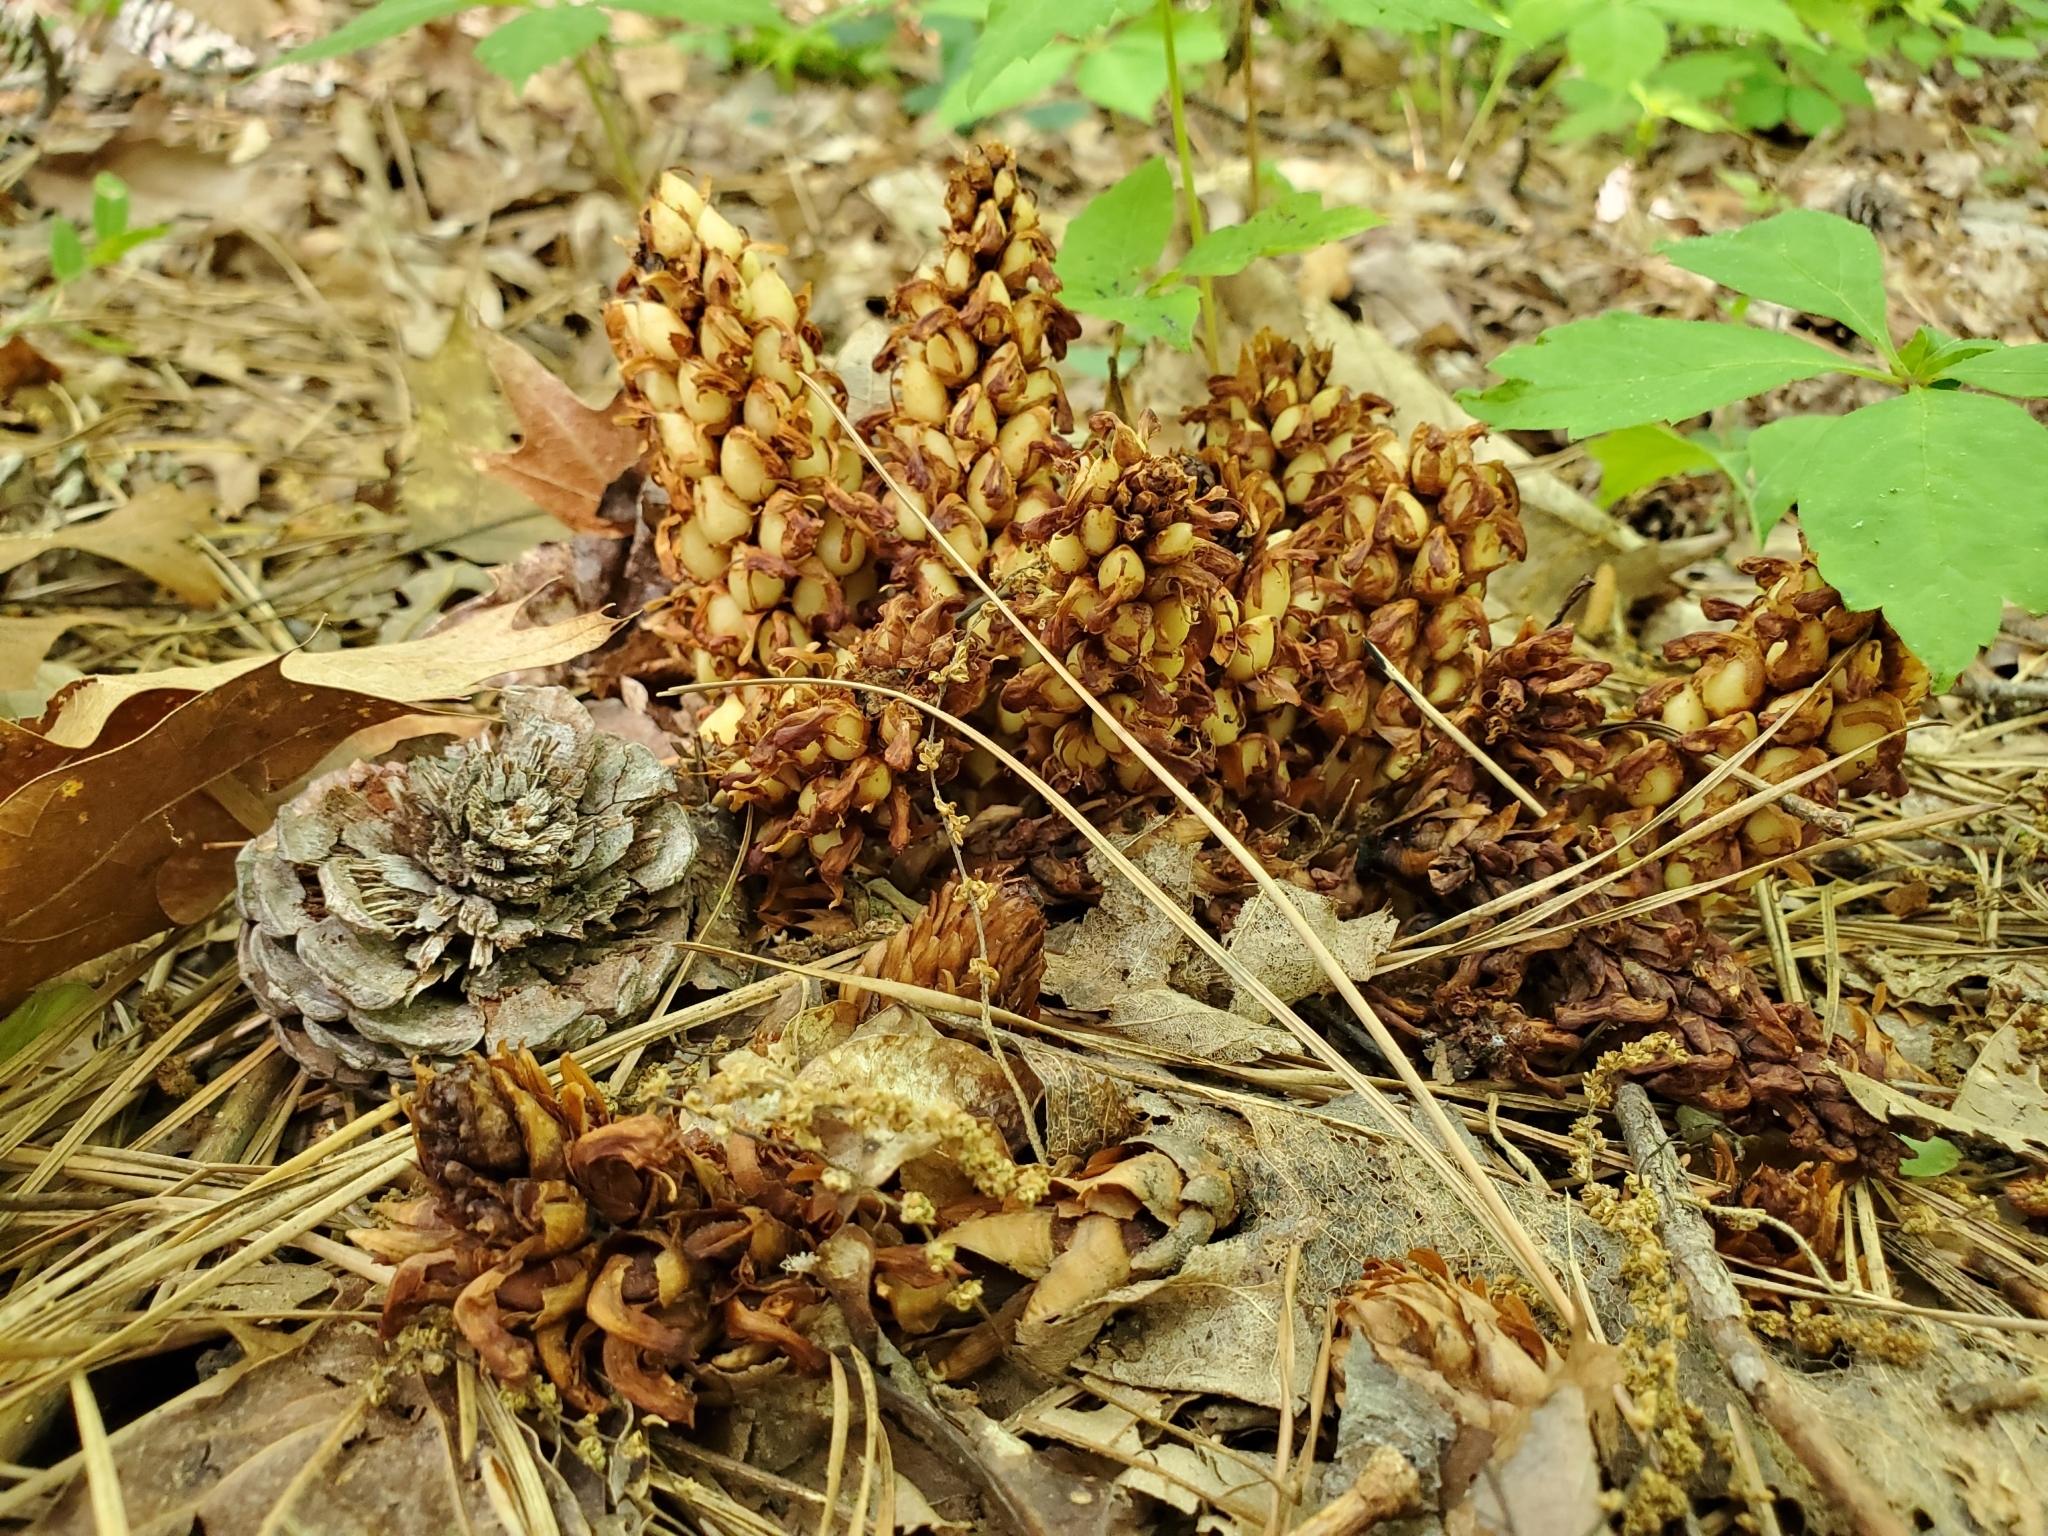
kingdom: Plantae
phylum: Tracheophyta
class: Magnoliopsida
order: Lamiales
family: Orobanchaceae
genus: Conopholis
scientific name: Conopholis americana
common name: American cancer-root
